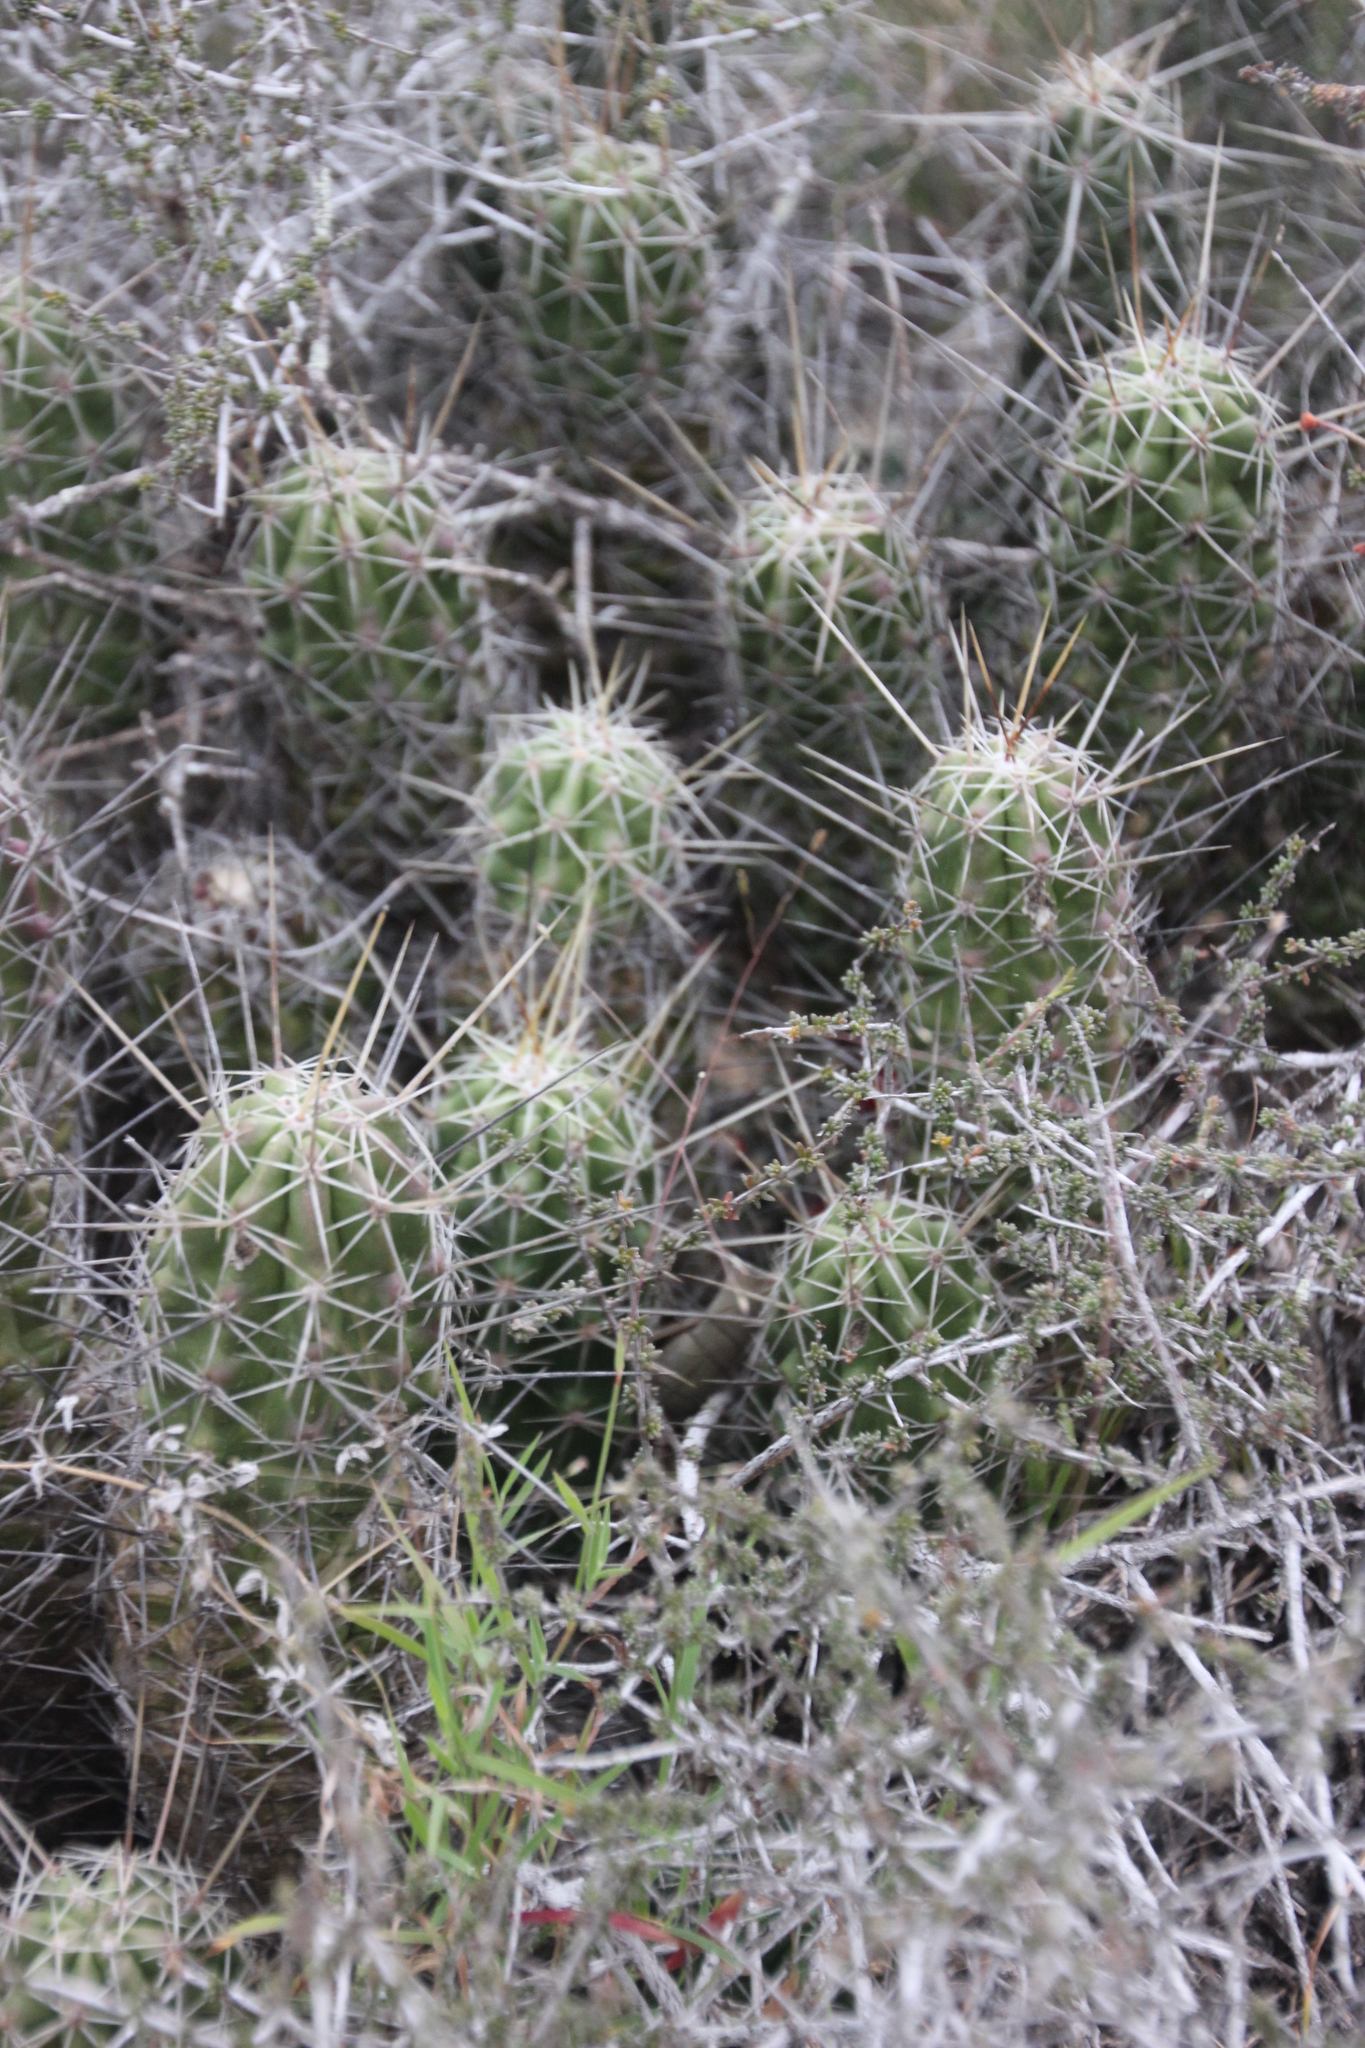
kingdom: Plantae
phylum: Tracheophyta
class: Magnoliopsida
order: Caryophyllales
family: Cactaceae
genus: Echinocereus
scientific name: Echinocereus enneacanthus
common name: Pitaya
